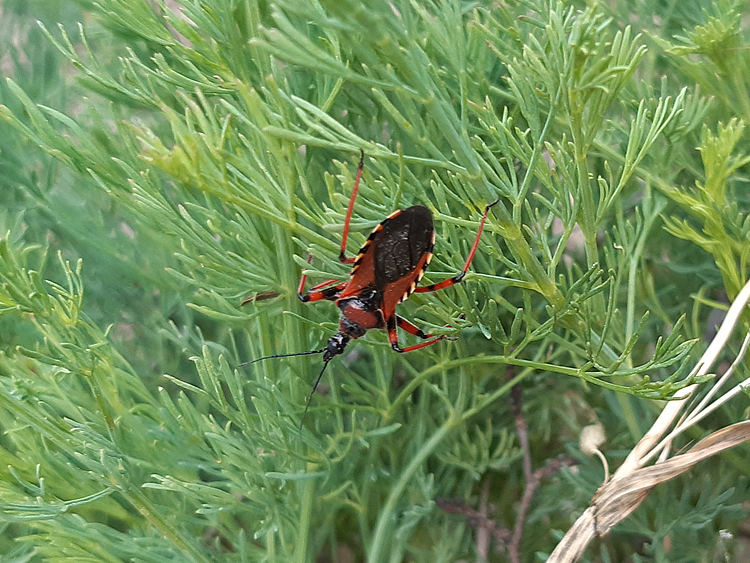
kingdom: Animalia
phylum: Arthropoda
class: Insecta
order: Hemiptera
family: Reduviidae
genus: Rhynocoris
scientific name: Rhynocoris iracundus
